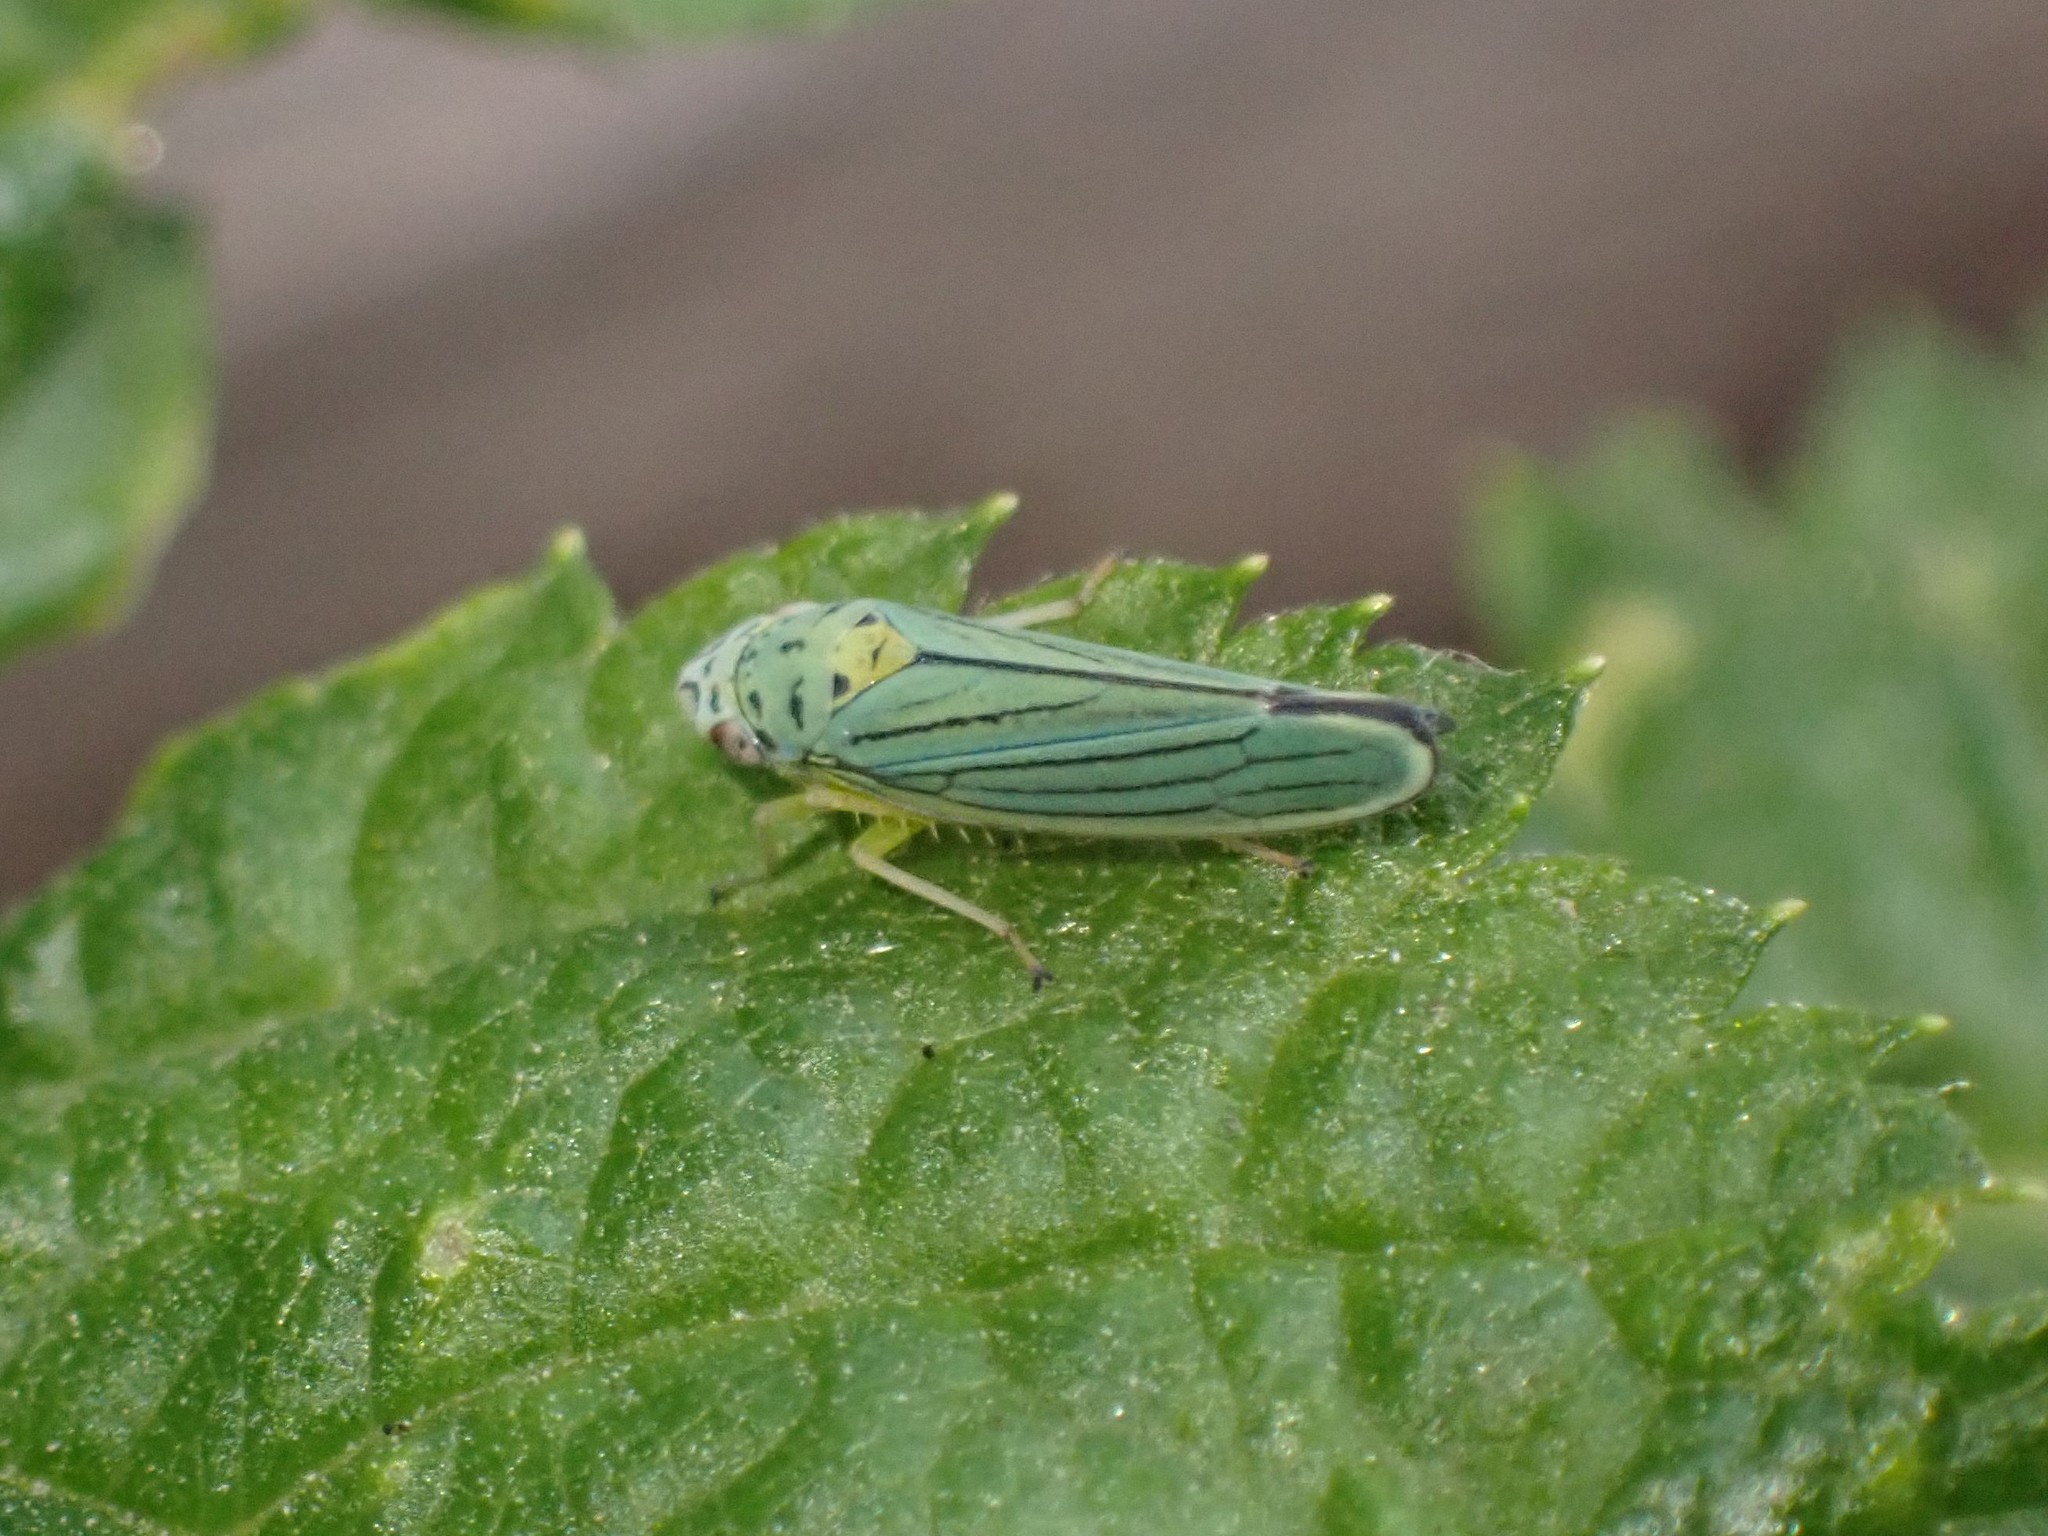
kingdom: Animalia
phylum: Arthropoda
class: Insecta
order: Hemiptera
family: Cicadellidae
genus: Graphocephala
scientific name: Graphocephala atropunctata
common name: Blue-green sharpshooter
